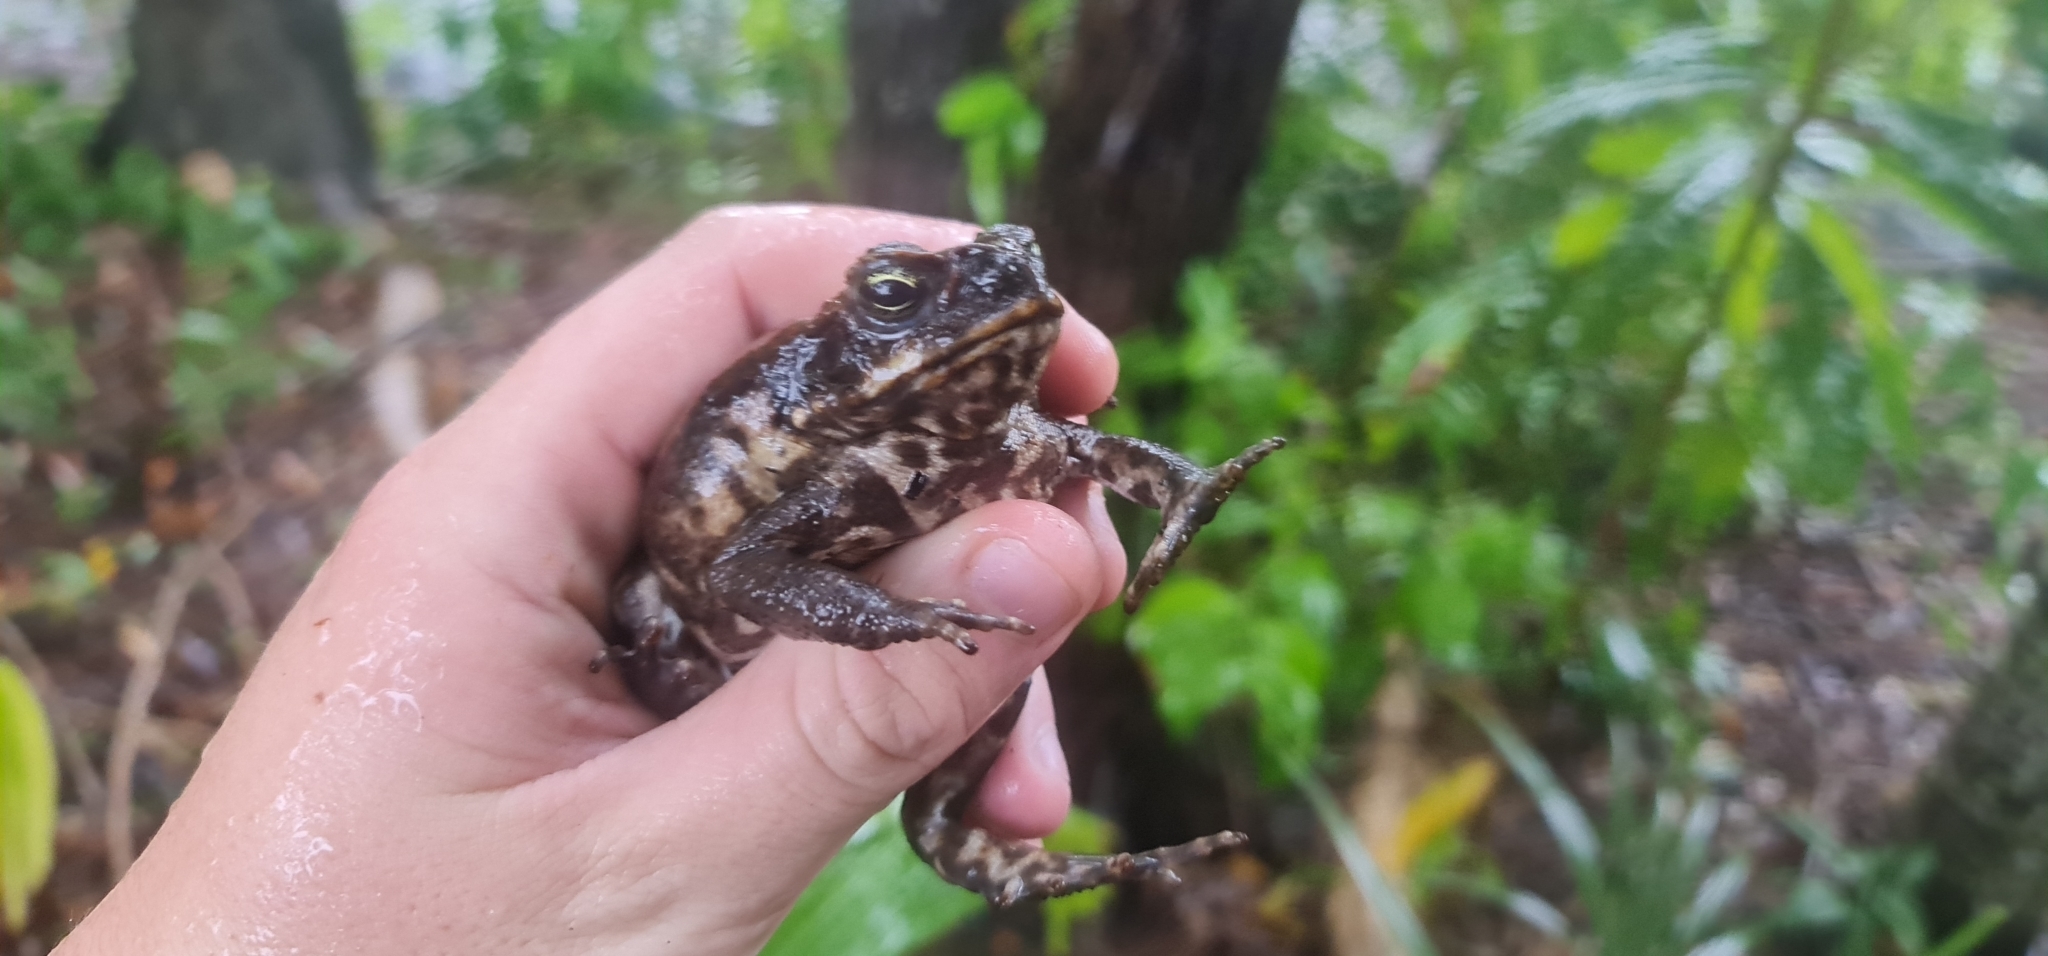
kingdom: Animalia
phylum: Chordata
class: Amphibia
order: Anura
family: Bufonidae
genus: Rhinella
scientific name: Rhinella marina
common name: Cane toad
